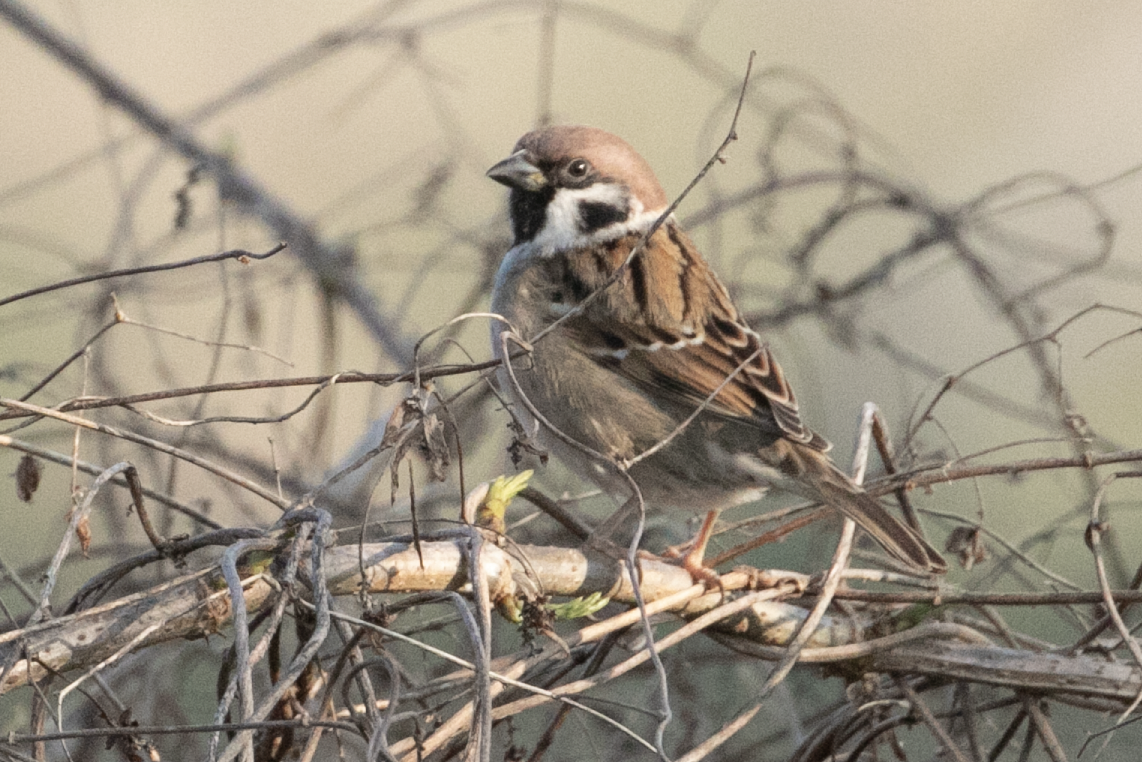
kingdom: Animalia
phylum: Chordata
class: Aves
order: Passeriformes
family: Passeridae
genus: Passer
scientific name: Passer montanus
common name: Eurasian tree sparrow
